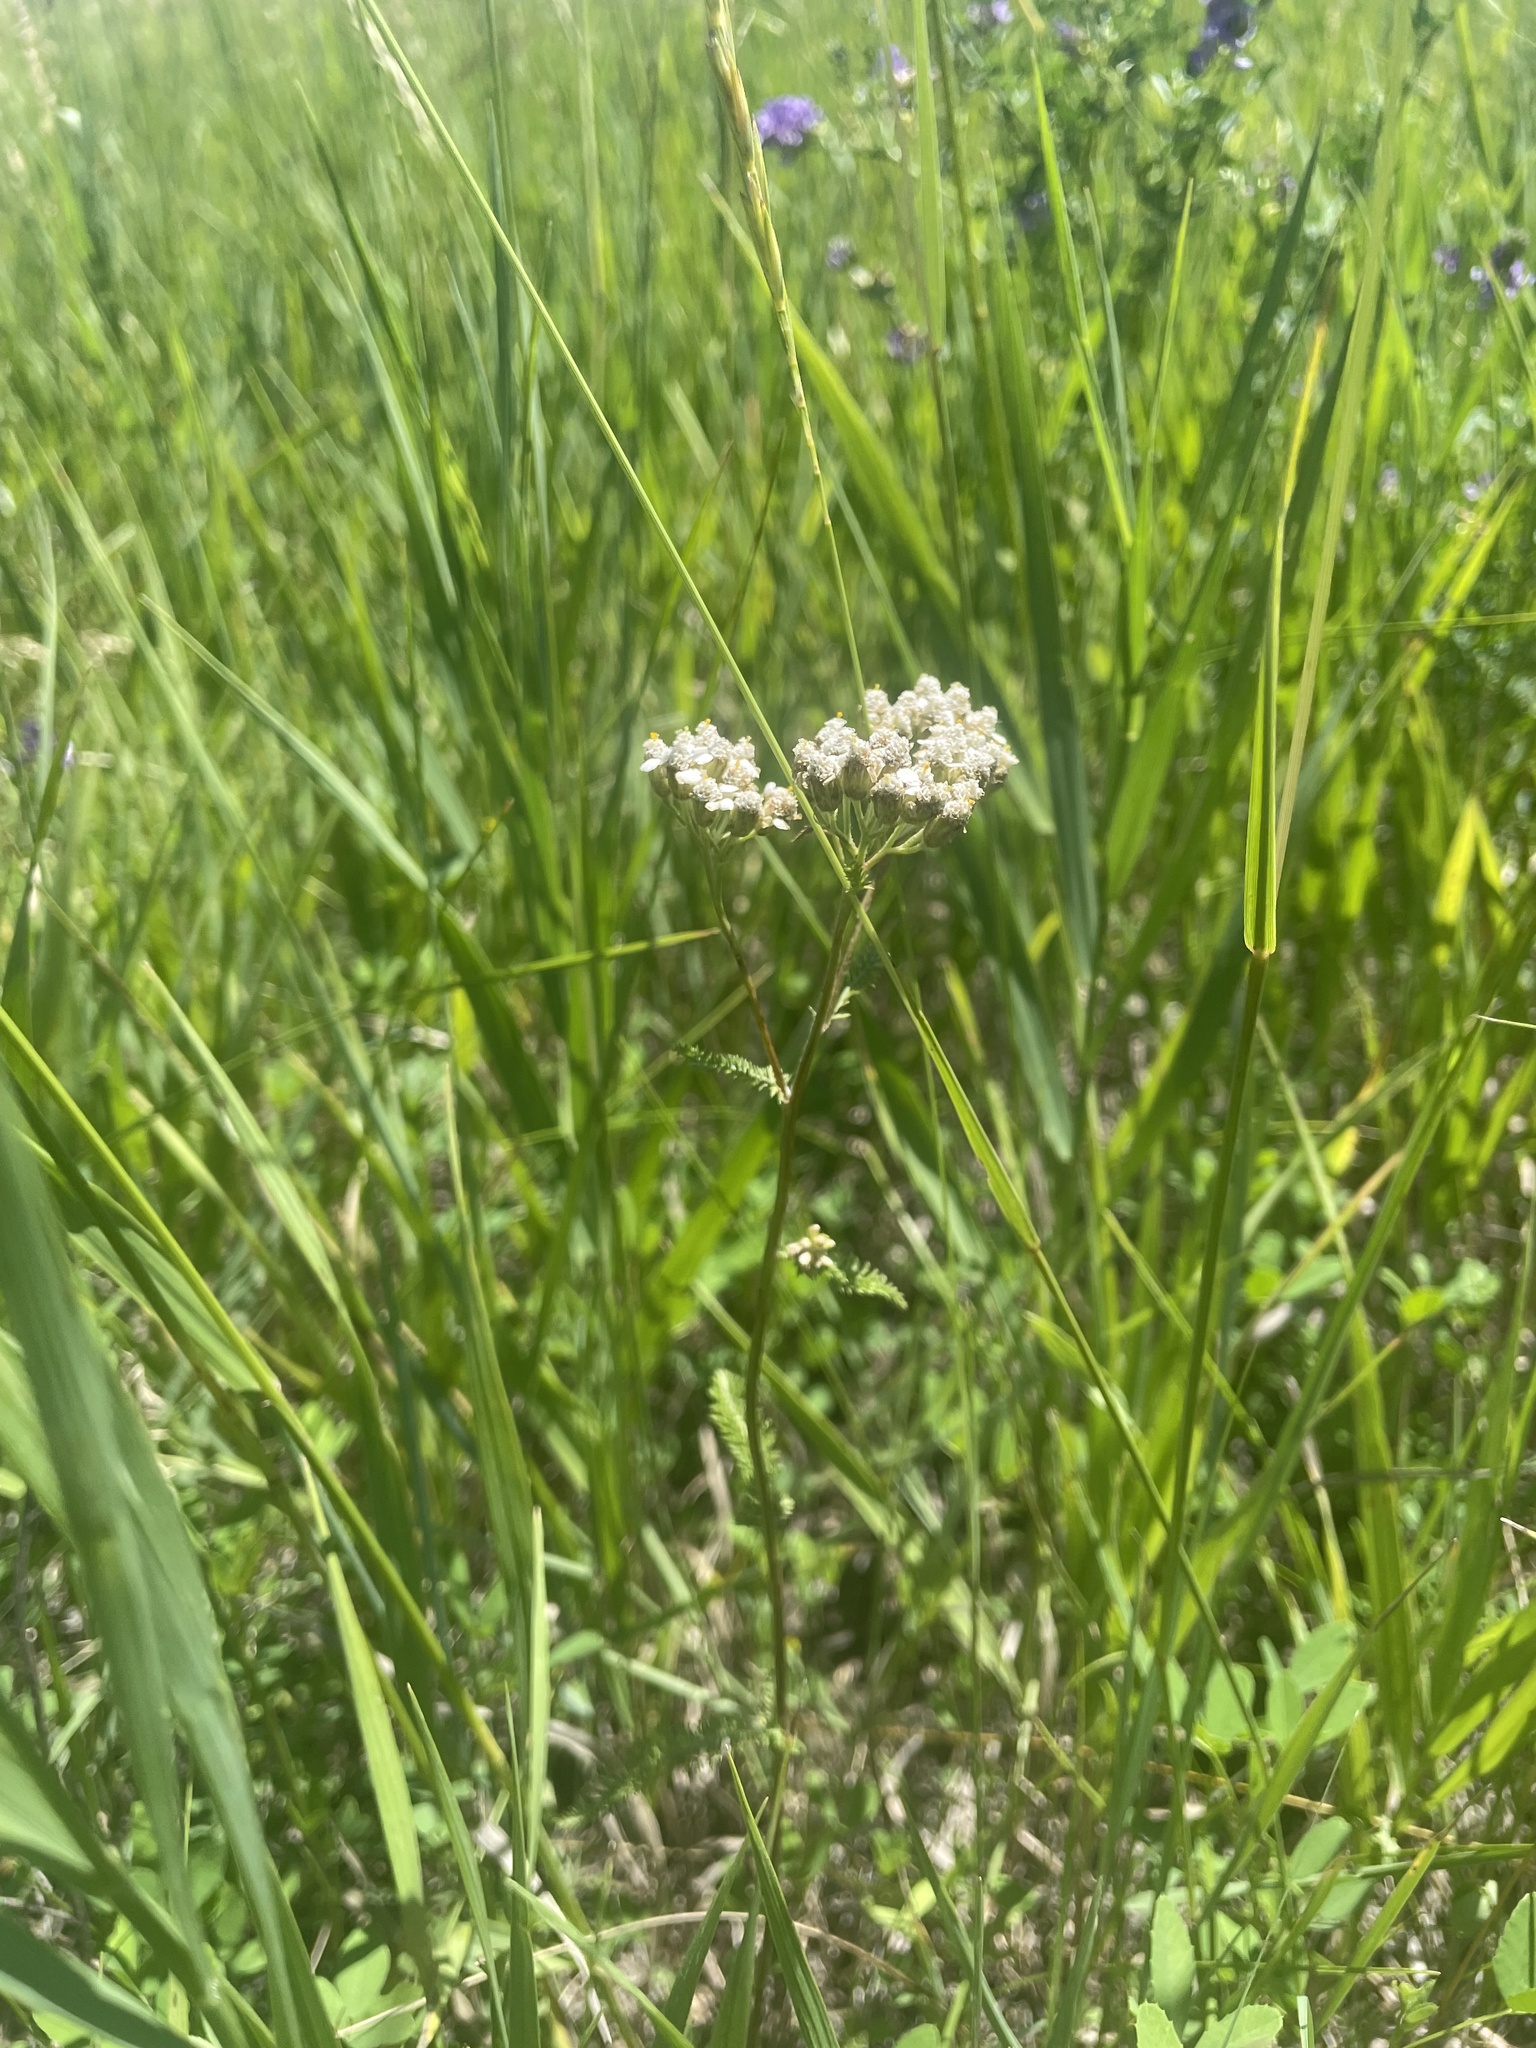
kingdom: Plantae
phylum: Tracheophyta
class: Magnoliopsida
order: Asterales
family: Asteraceae
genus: Achillea
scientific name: Achillea millefolium
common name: Yarrow
